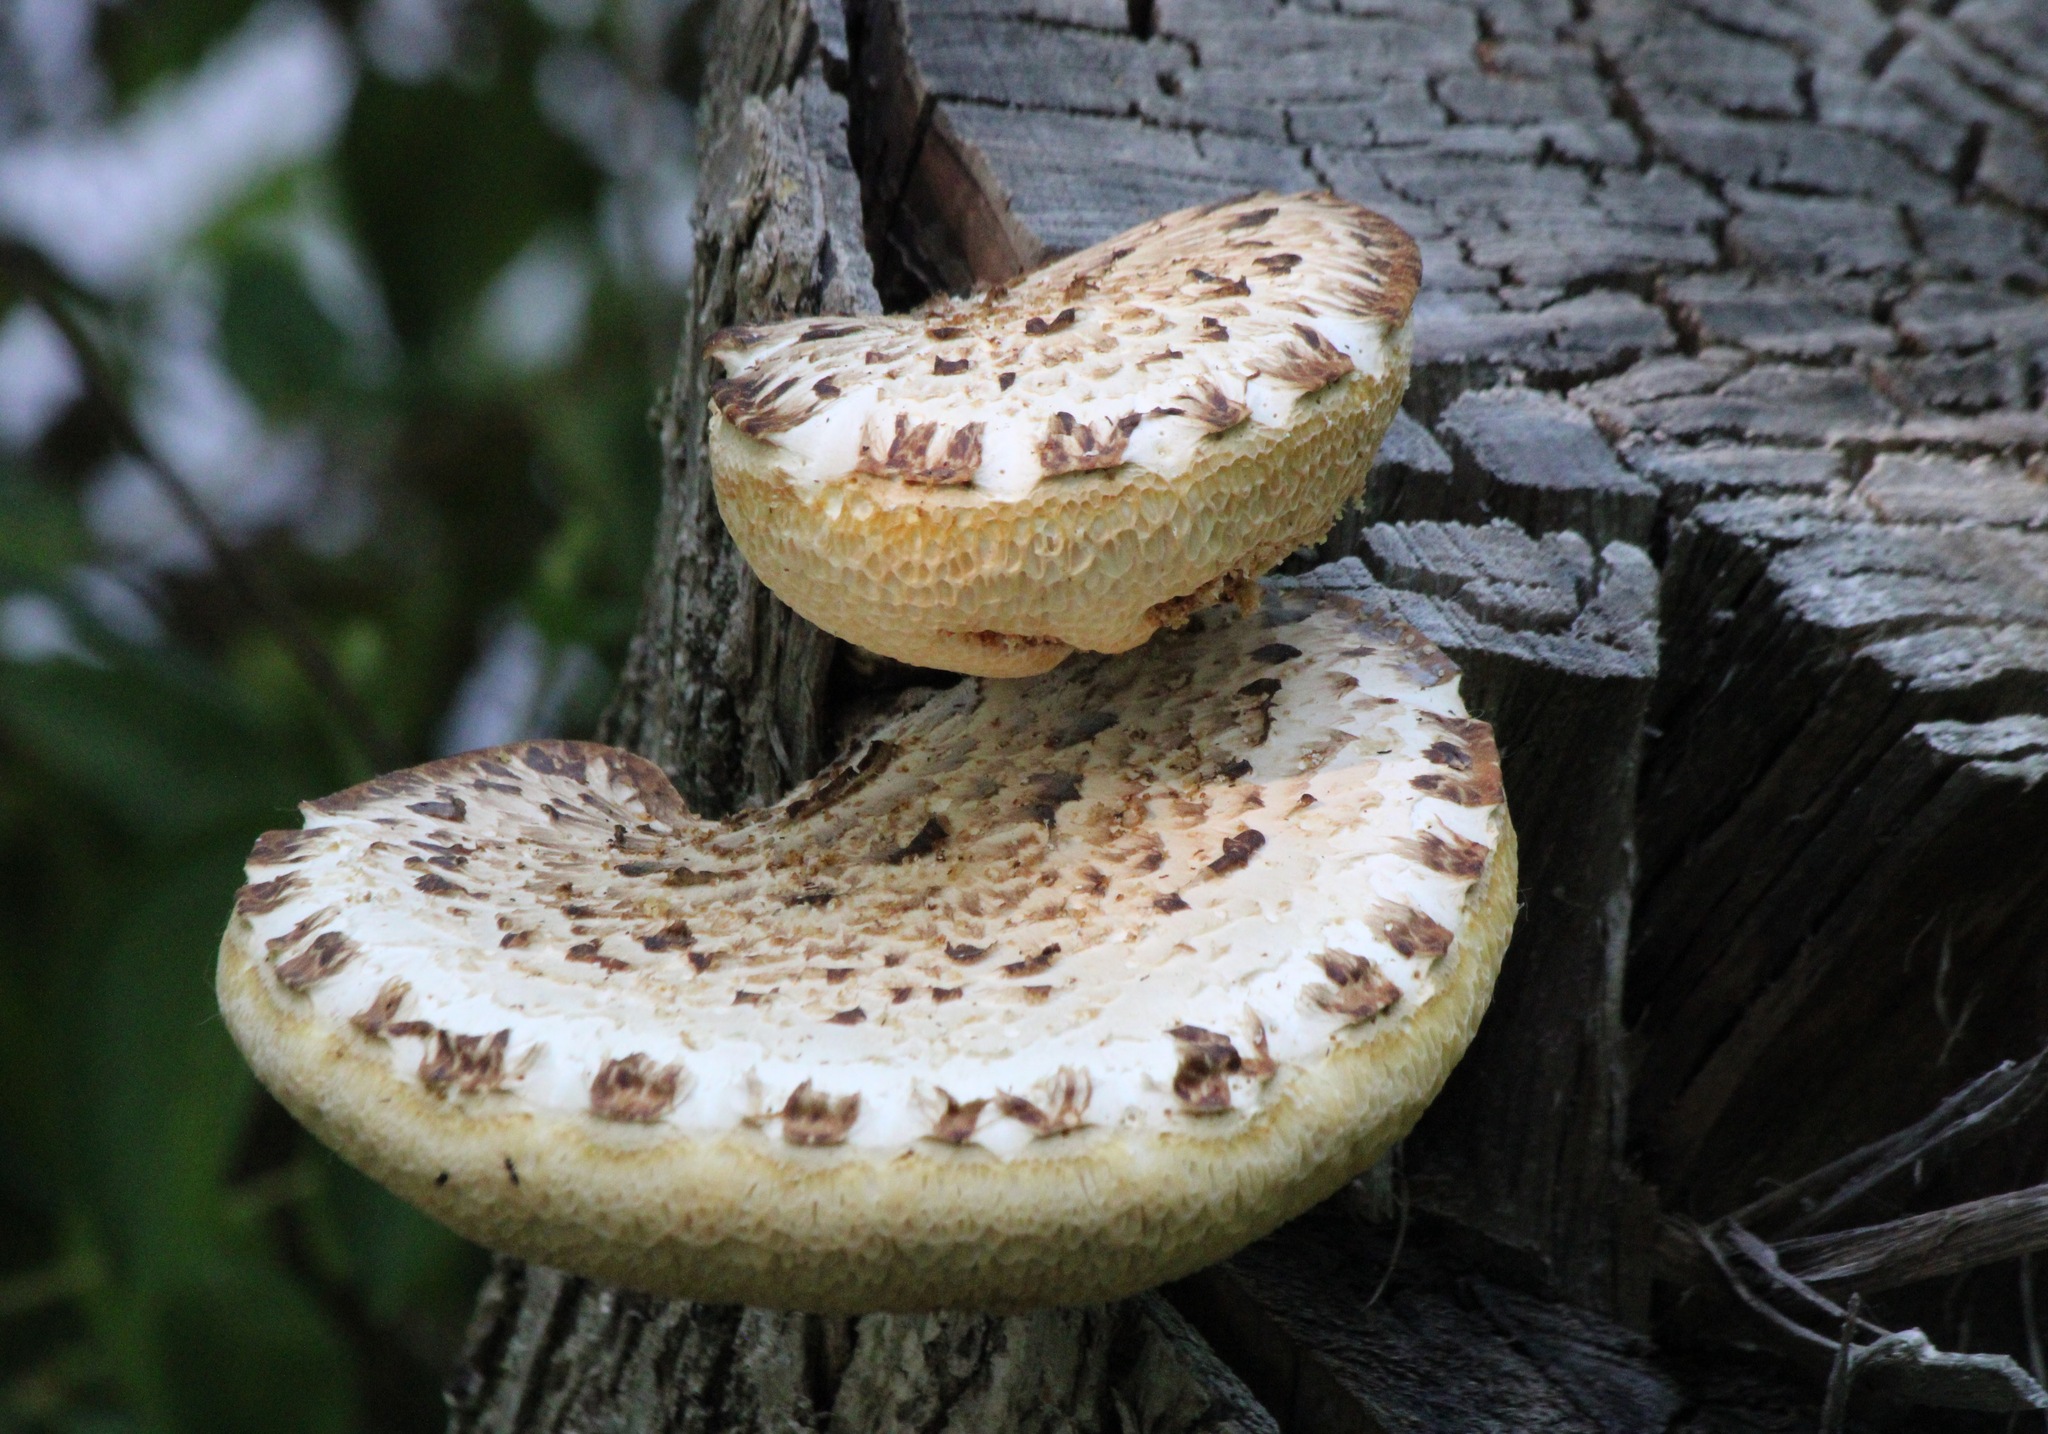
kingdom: Fungi
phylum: Basidiomycota
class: Agaricomycetes
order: Polyporales
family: Polyporaceae
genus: Cerioporus
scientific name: Cerioporus squamosus
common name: Dryad's saddle
